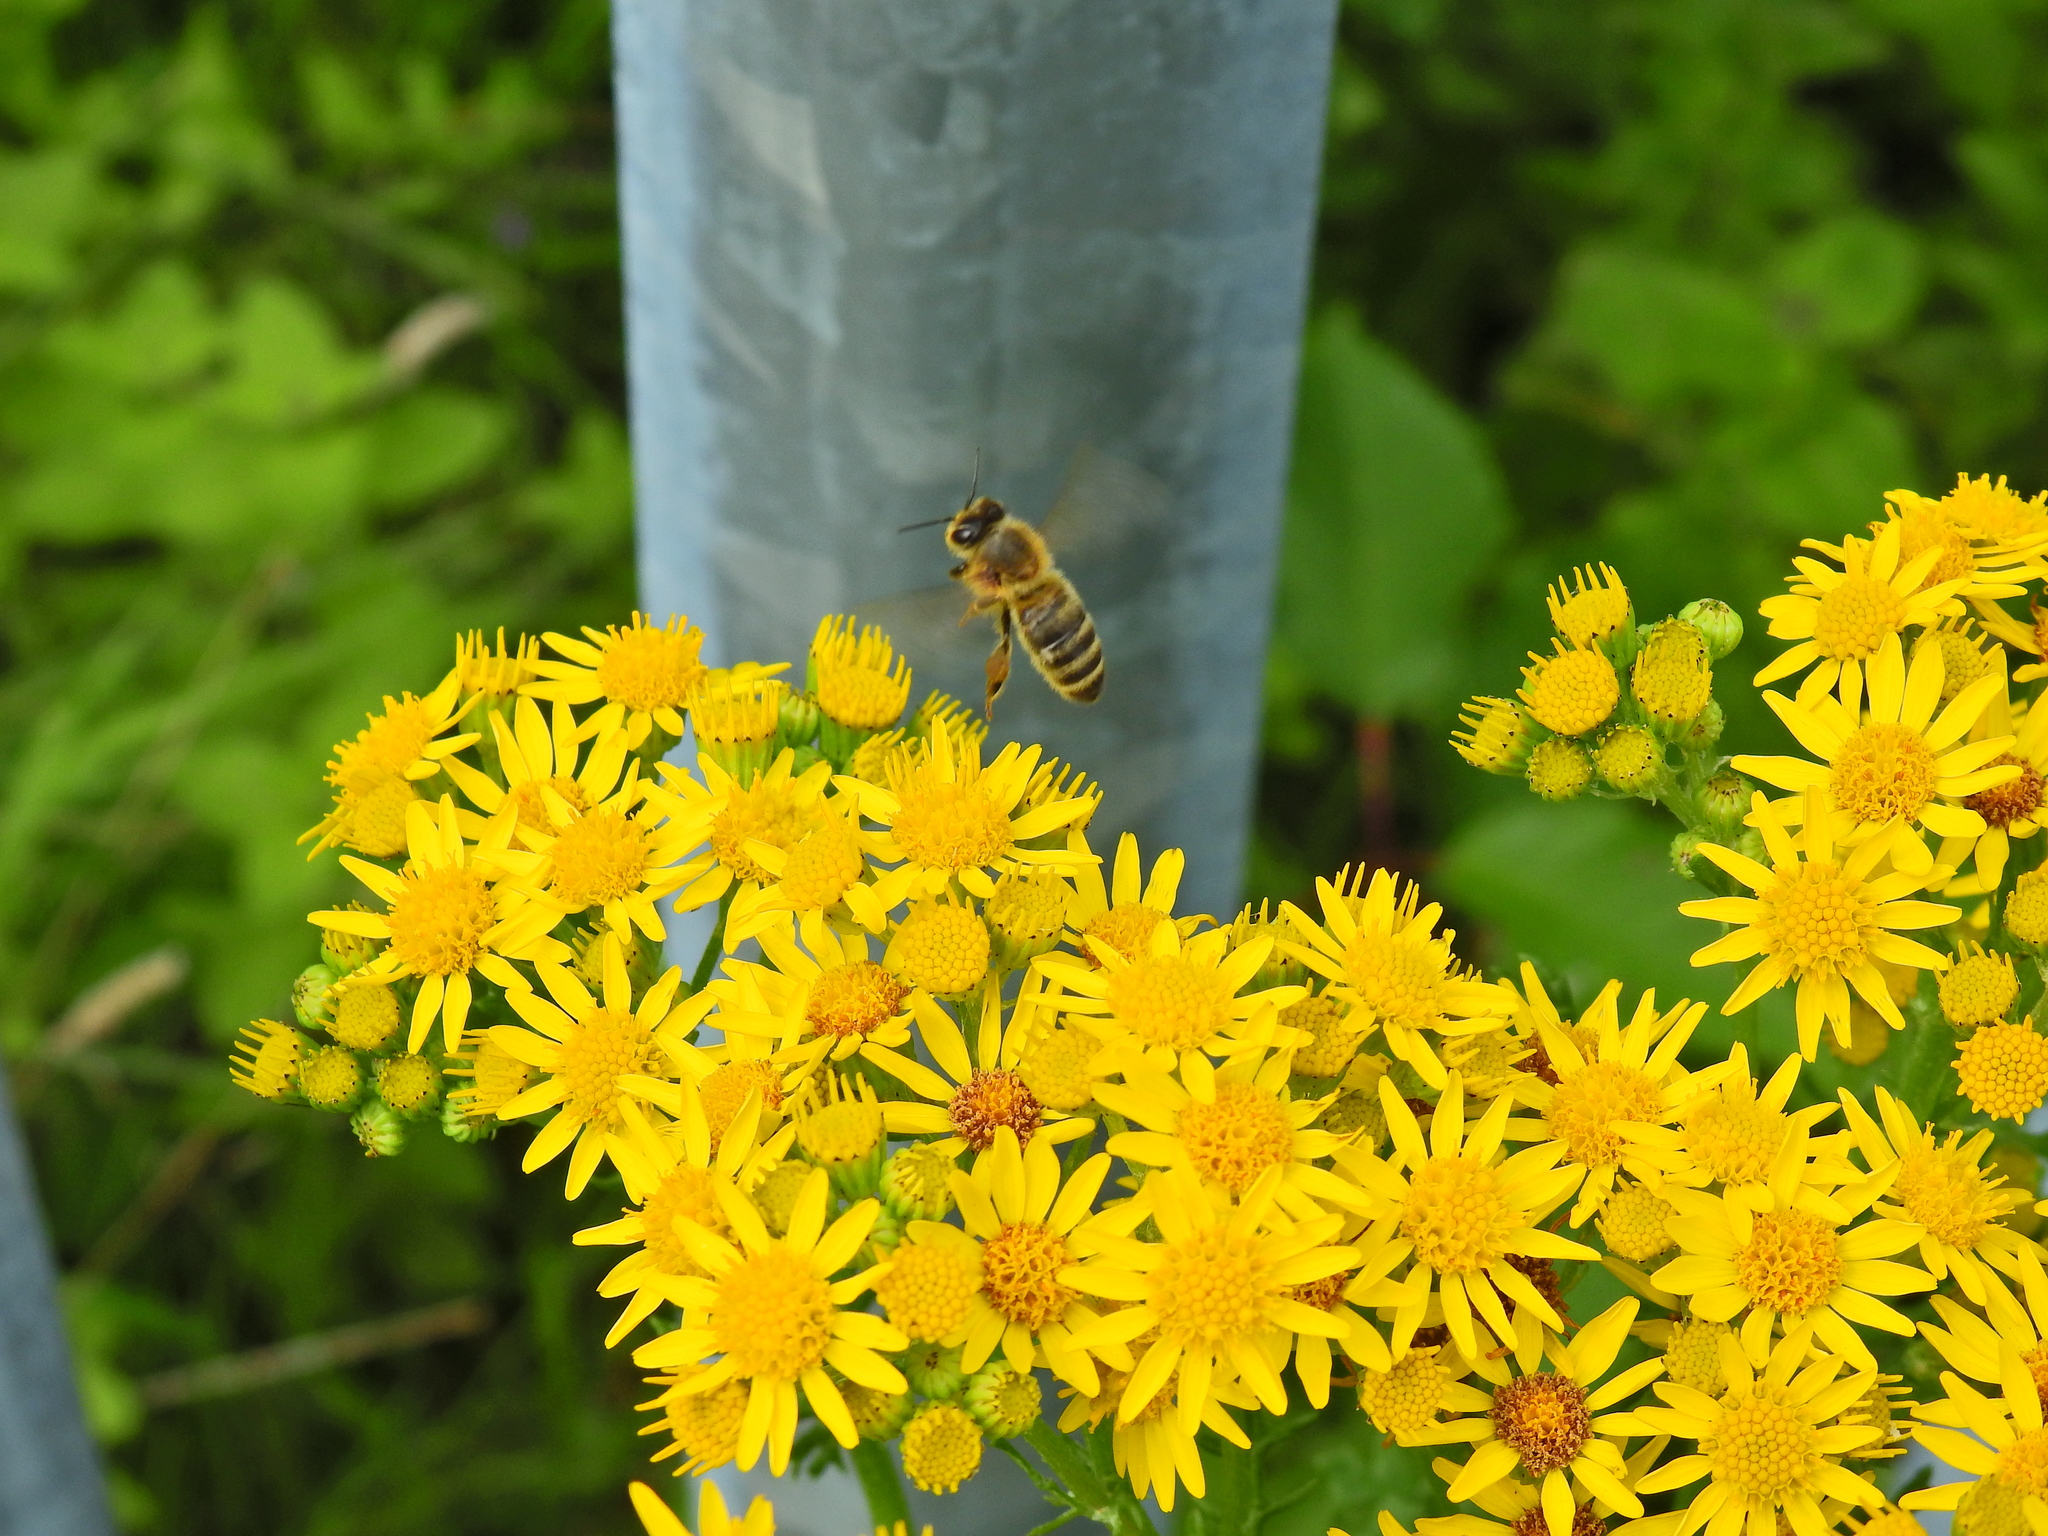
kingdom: Animalia
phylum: Arthropoda
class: Insecta
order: Hymenoptera
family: Apidae
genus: Apis
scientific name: Apis mellifera
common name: Honey bee
